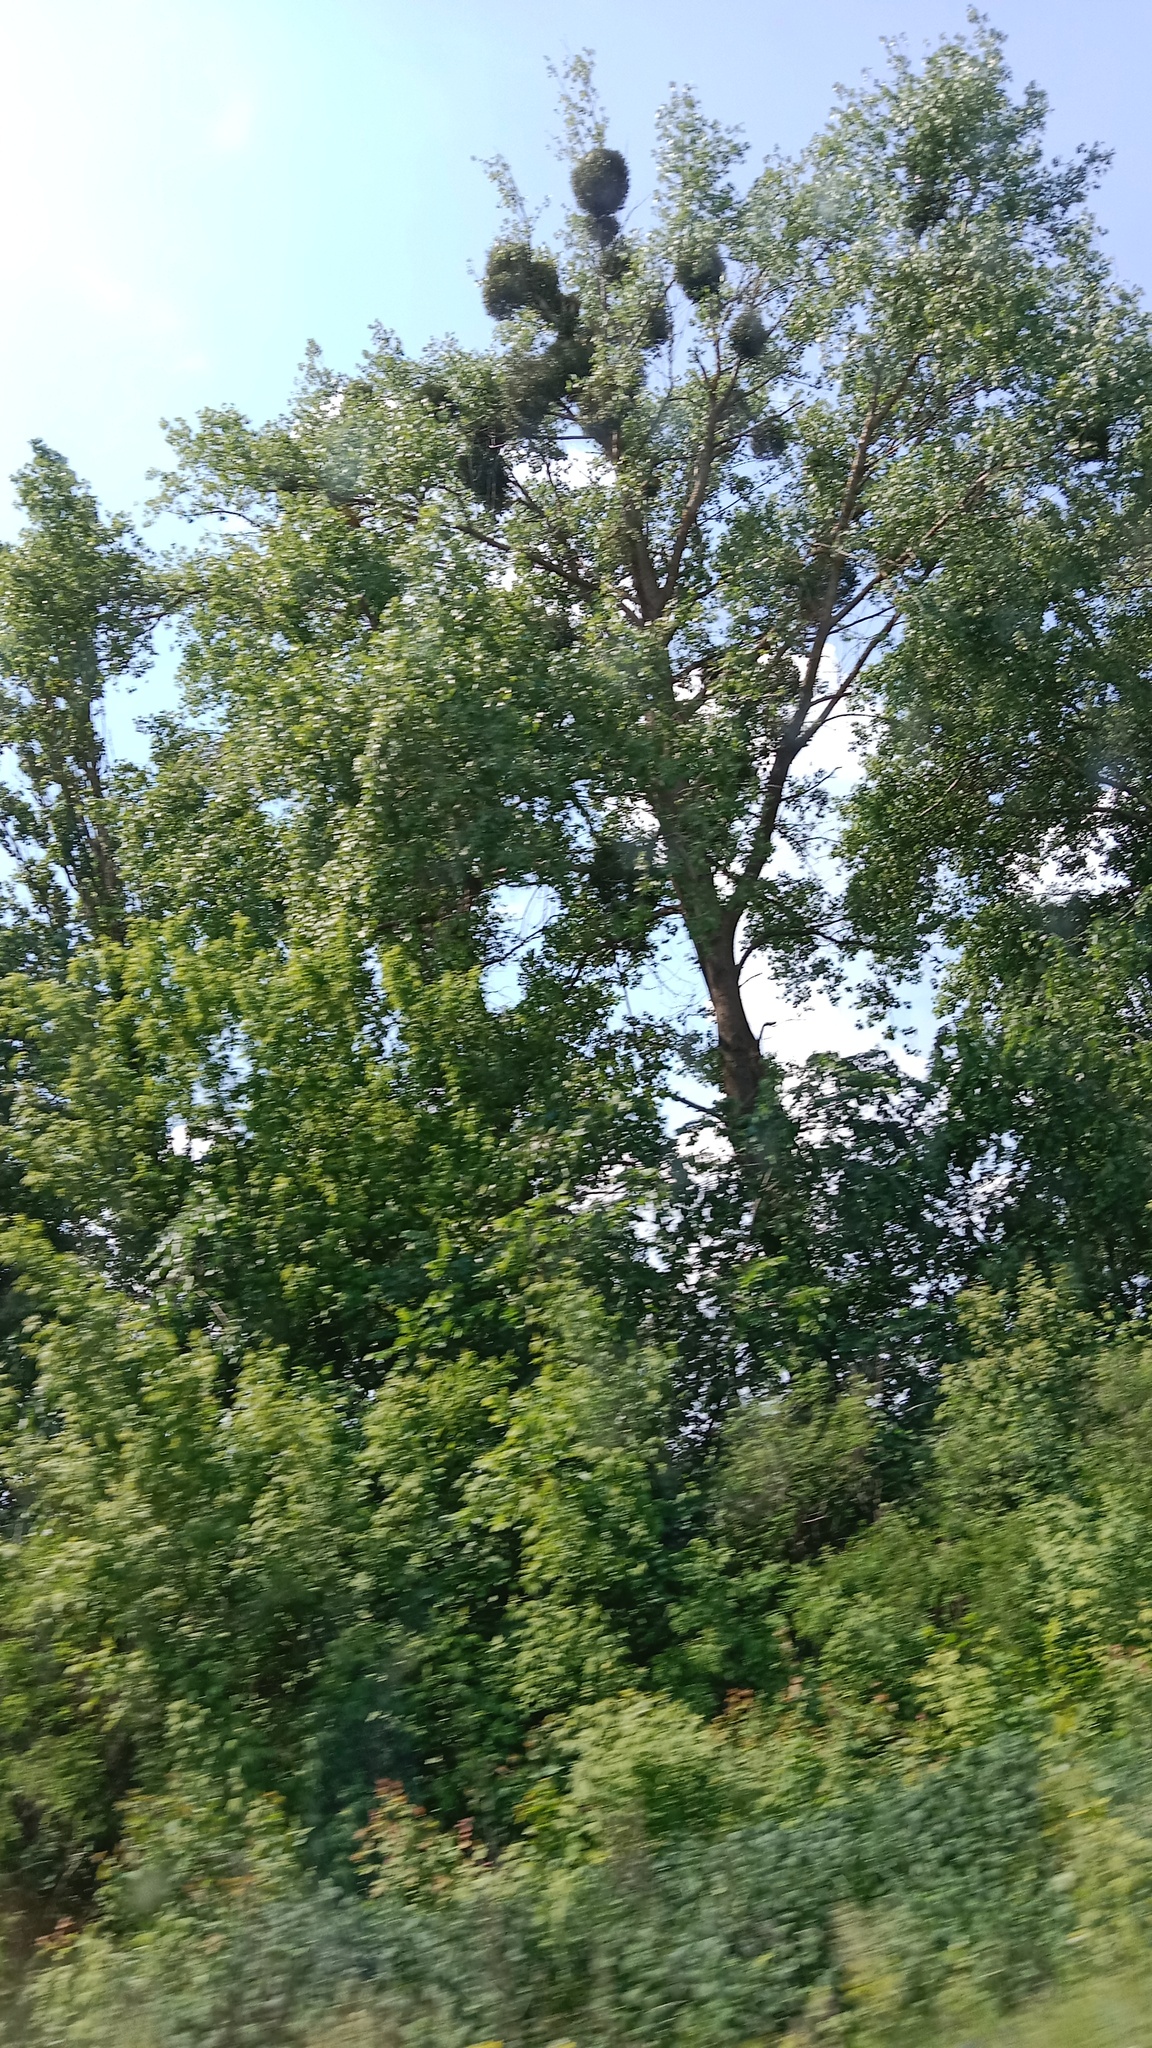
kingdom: Plantae
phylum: Tracheophyta
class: Magnoliopsida
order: Santalales
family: Viscaceae
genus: Viscum
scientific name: Viscum album
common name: Mistletoe
